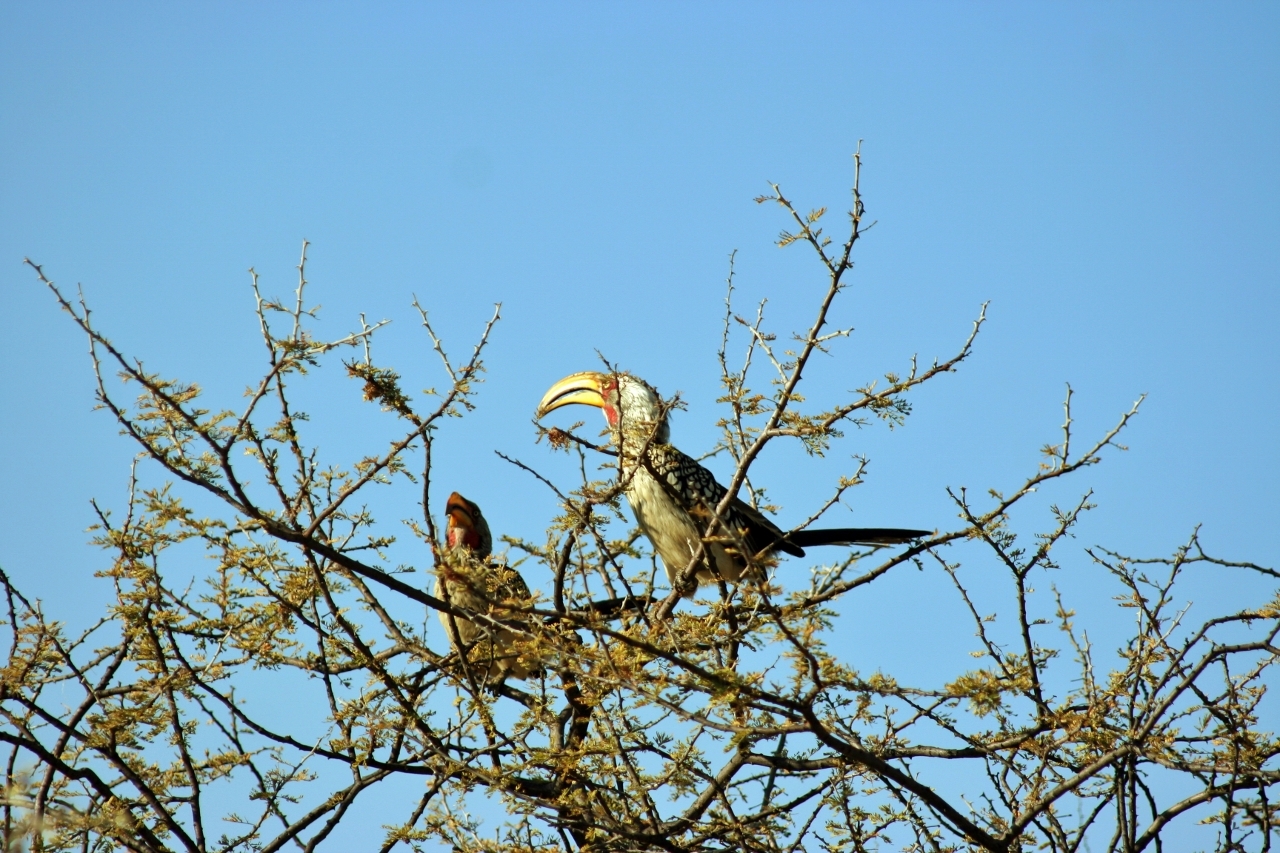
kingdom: Animalia
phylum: Chordata
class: Aves
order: Bucerotiformes
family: Bucerotidae
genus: Tockus
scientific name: Tockus leucomelas
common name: Southern yellow-billed hornbill
